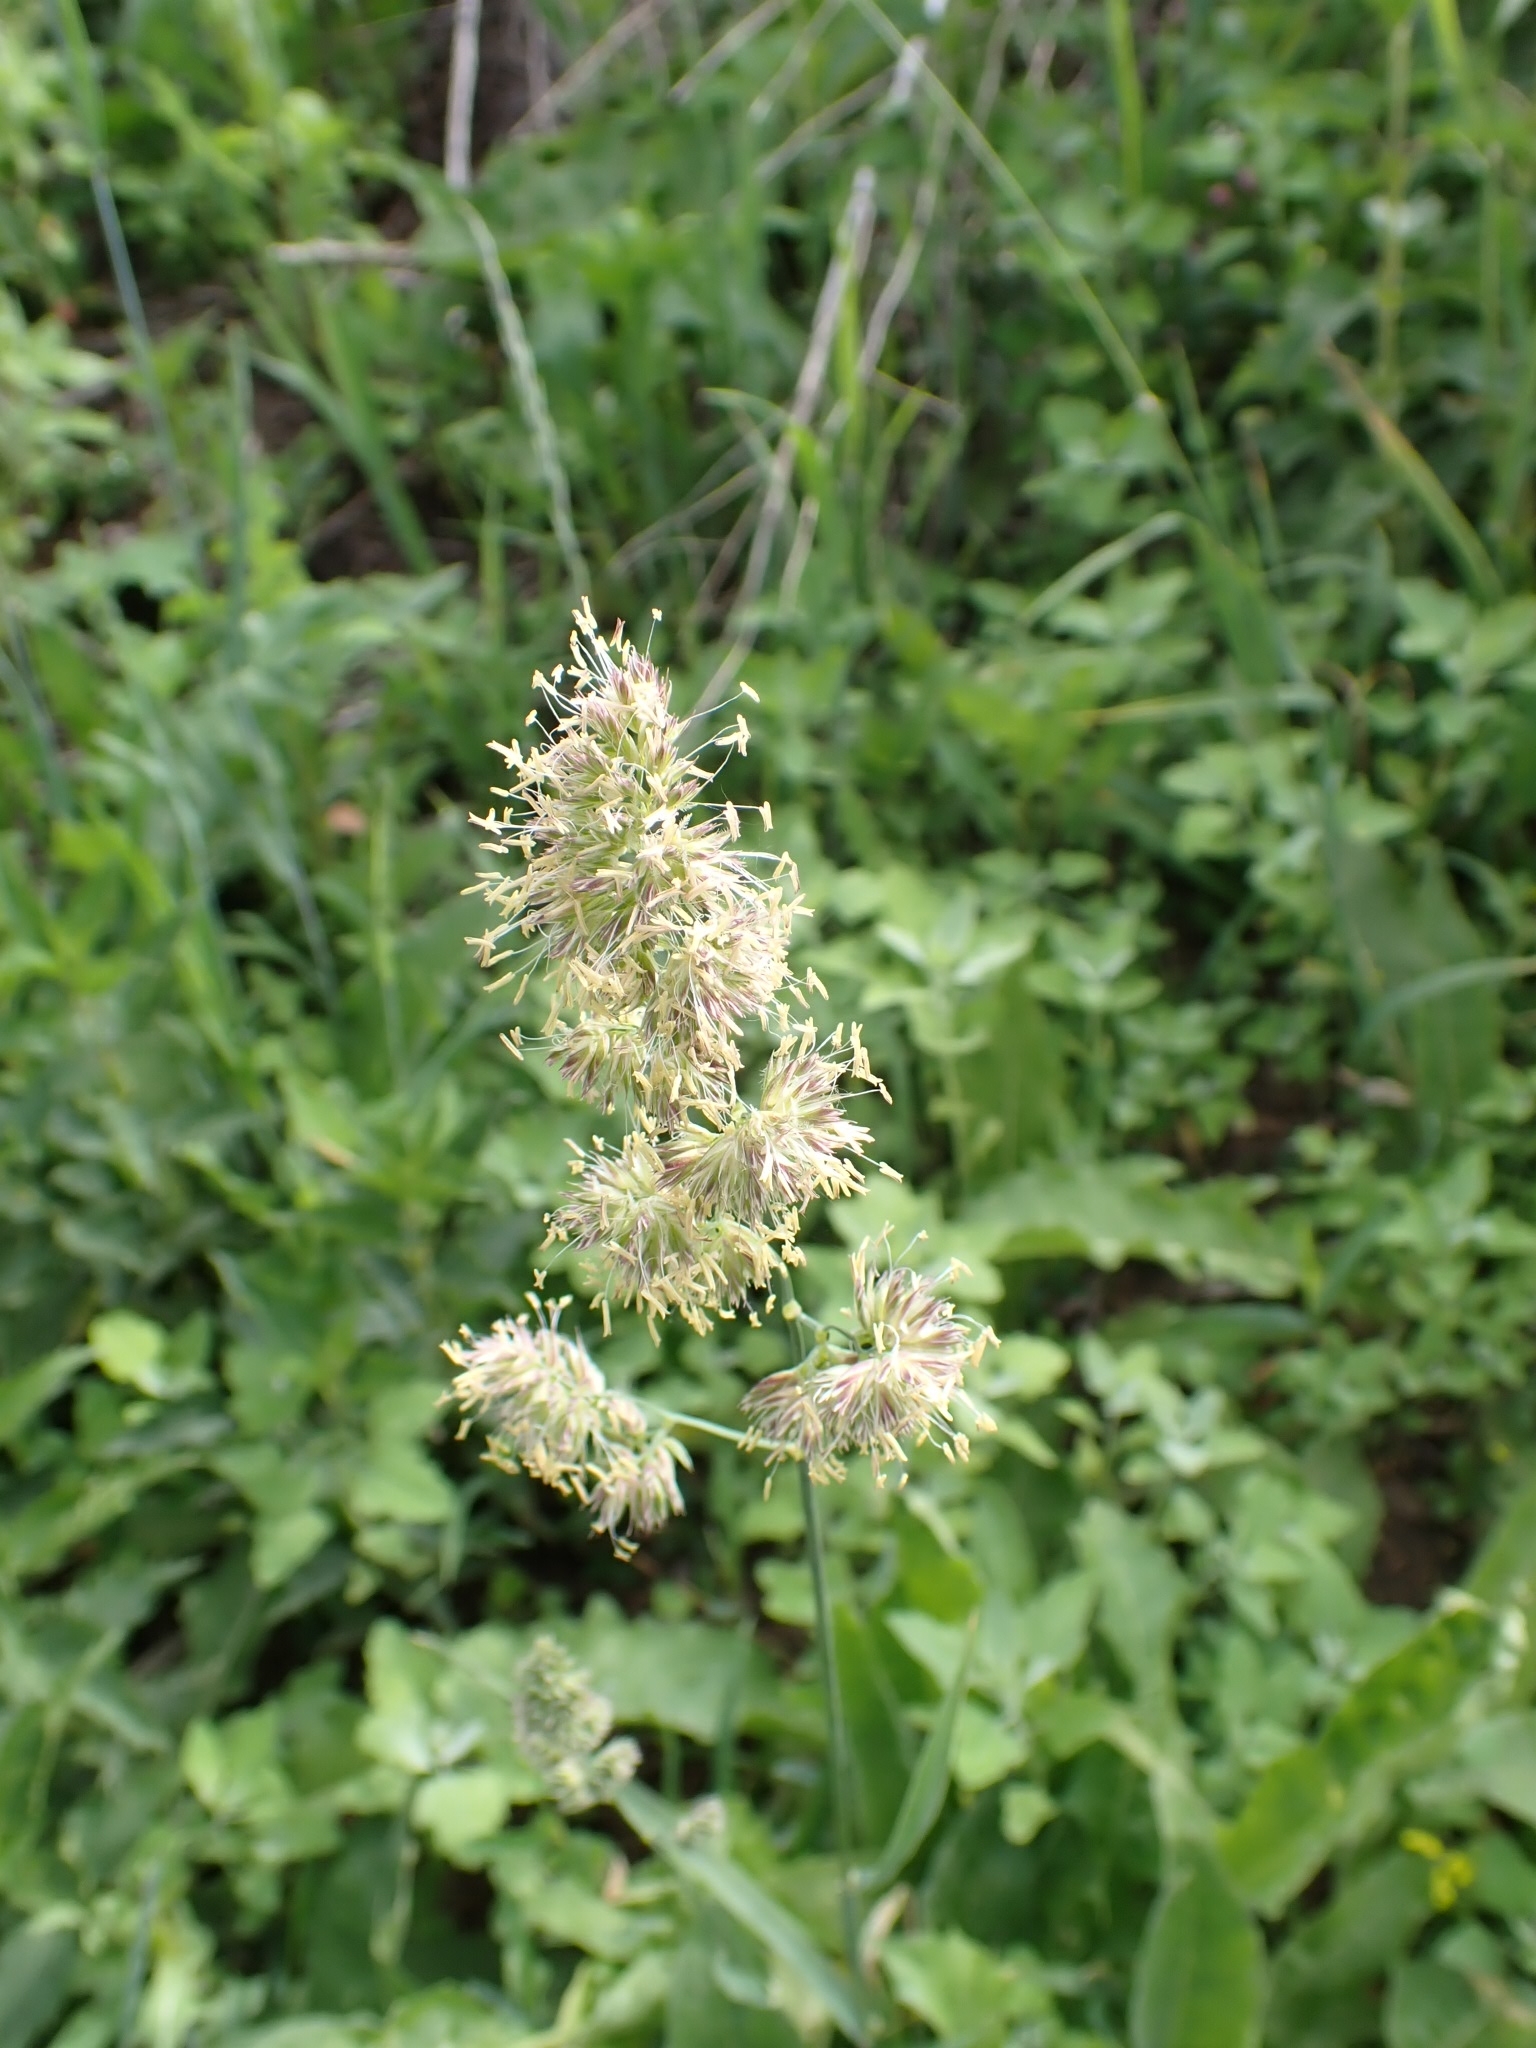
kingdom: Plantae
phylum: Tracheophyta
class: Liliopsida
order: Poales
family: Poaceae
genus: Dactylis
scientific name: Dactylis glomerata
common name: Orchardgrass
